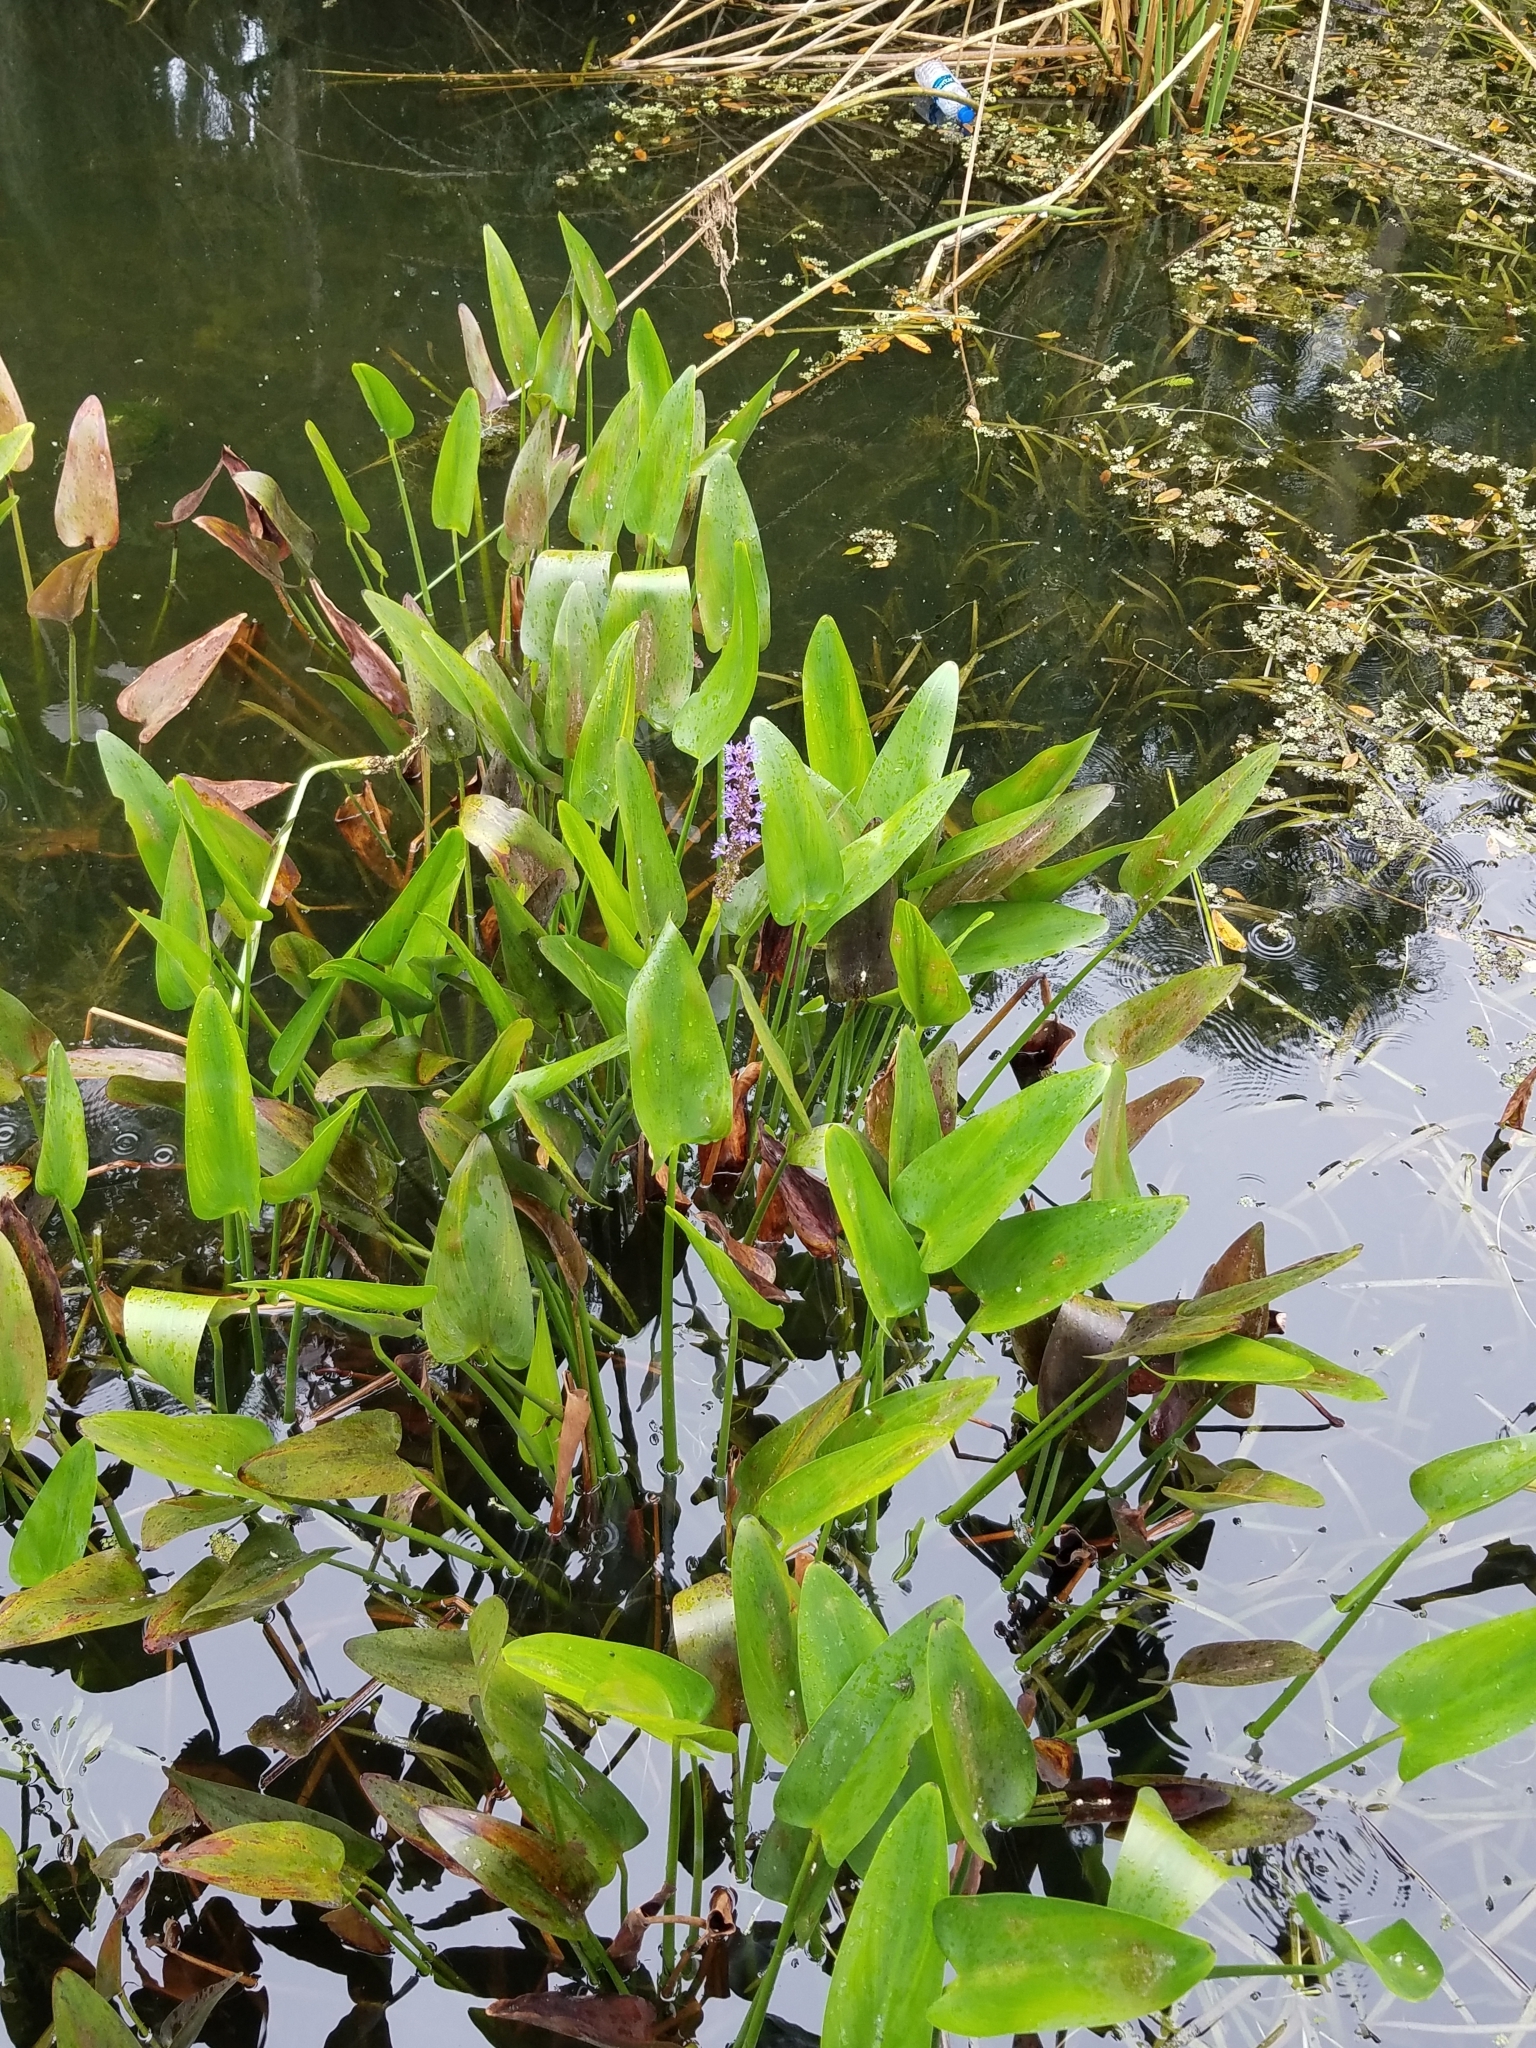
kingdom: Plantae
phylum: Tracheophyta
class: Liliopsida
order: Commelinales
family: Pontederiaceae
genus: Pontederia
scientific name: Pontederia cordata
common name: Pickerelweed
